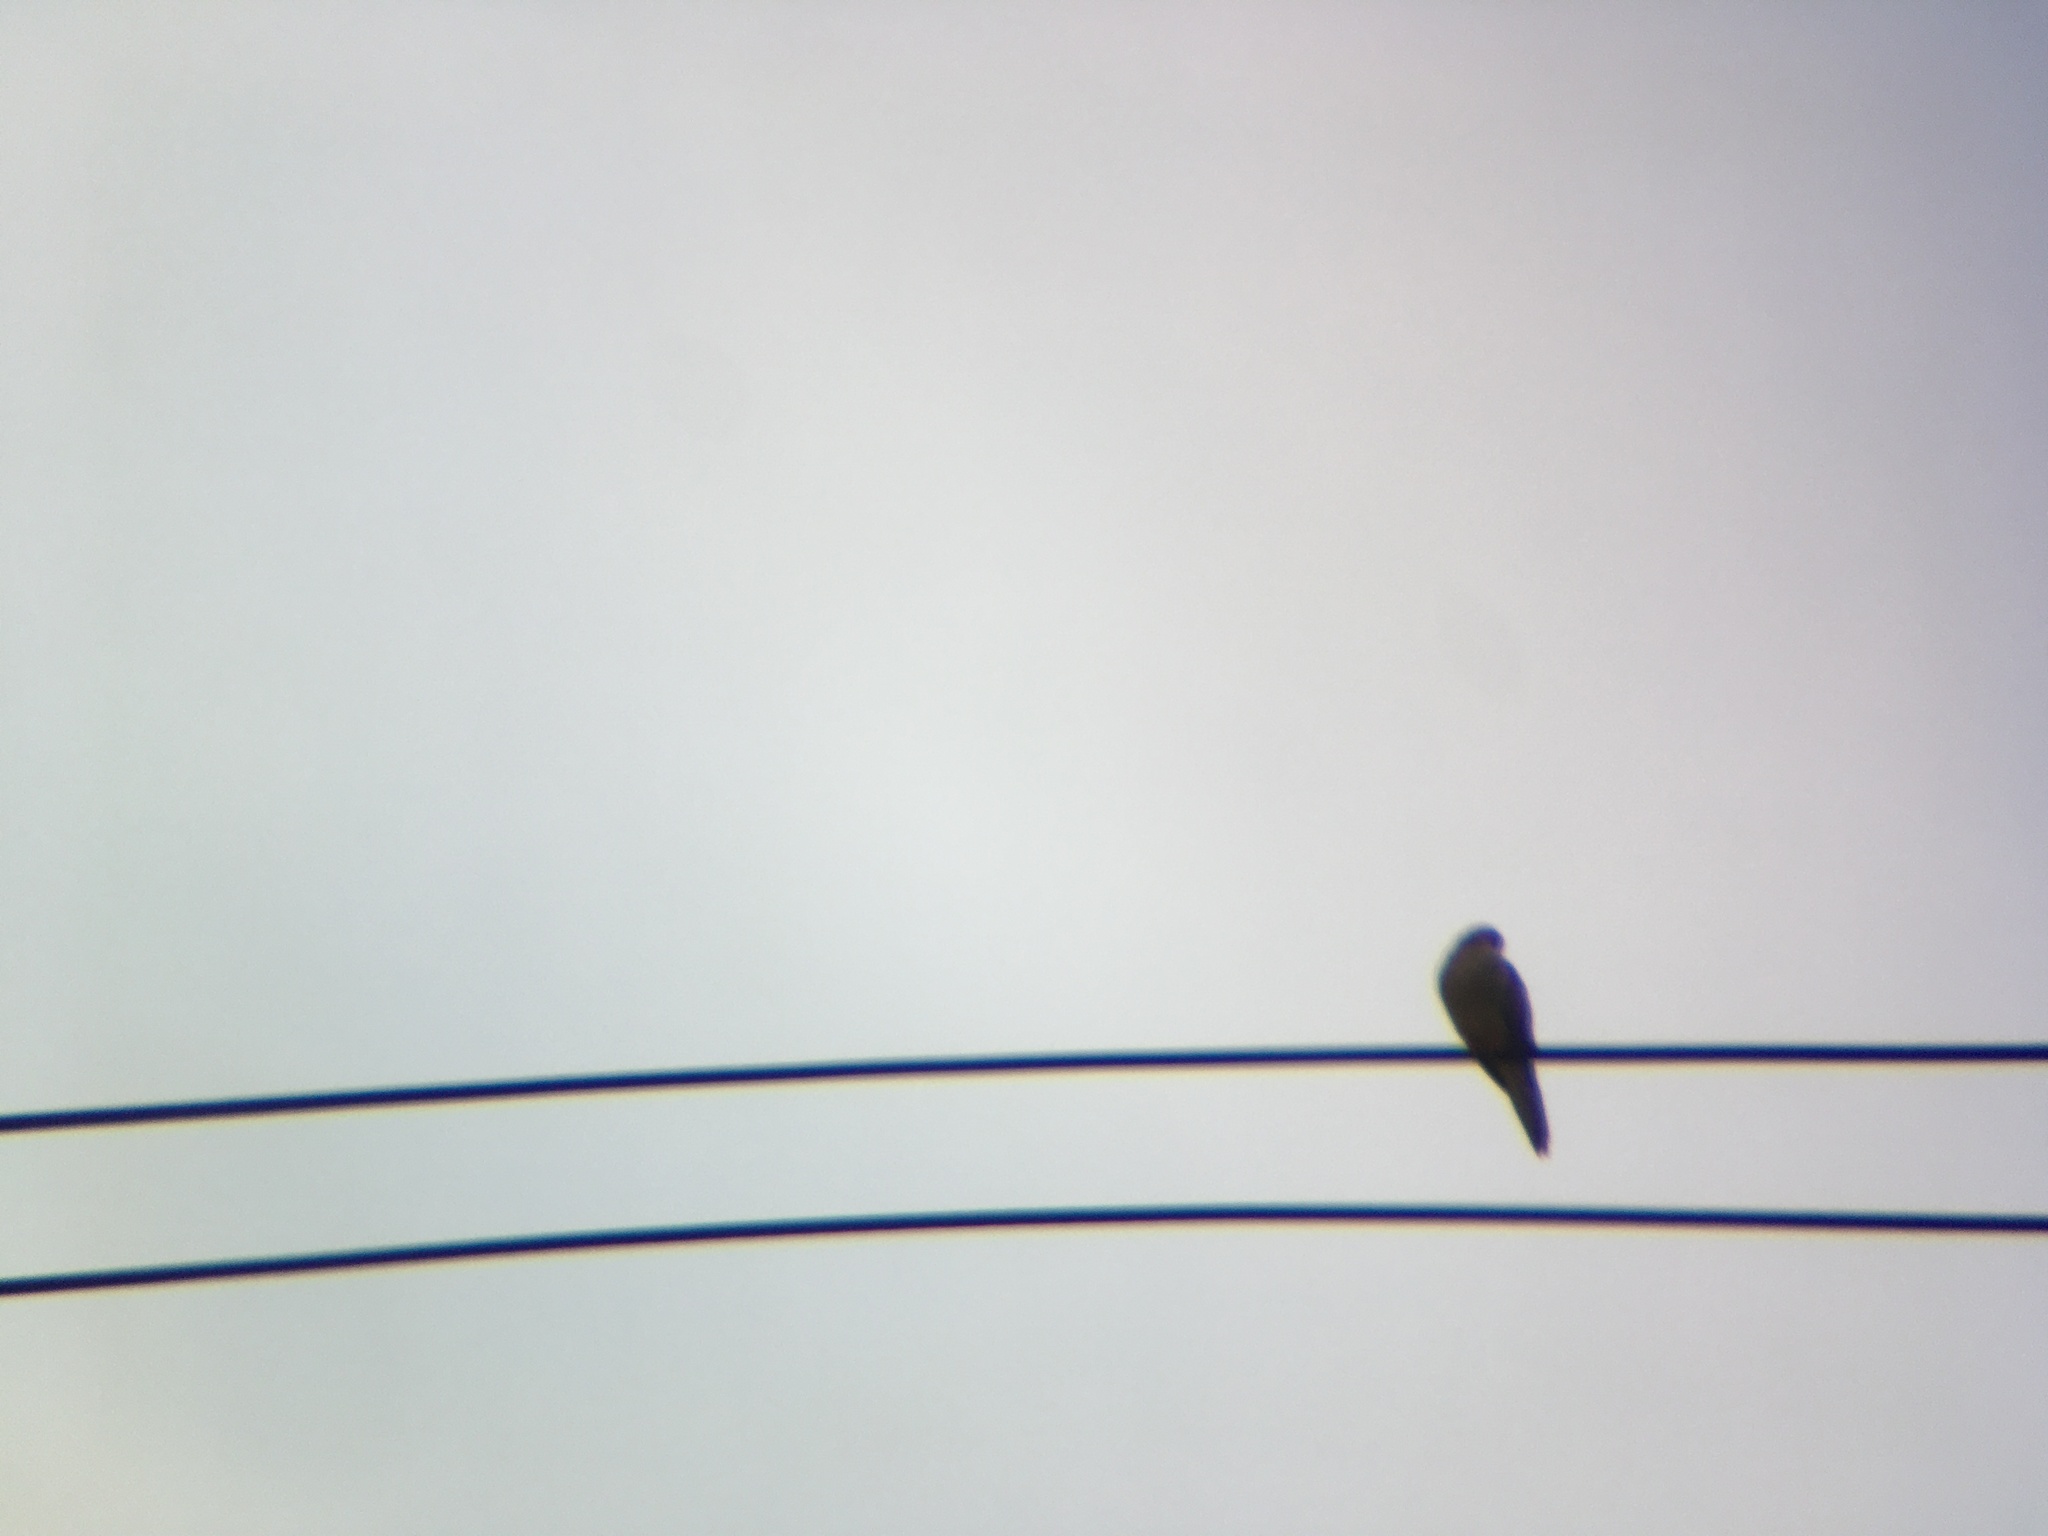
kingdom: Animalia
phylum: Chordata
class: Aves
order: Columbiformes
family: Columbidae
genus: Zenaida
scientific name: Zenaida macroura
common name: Mourning dove
